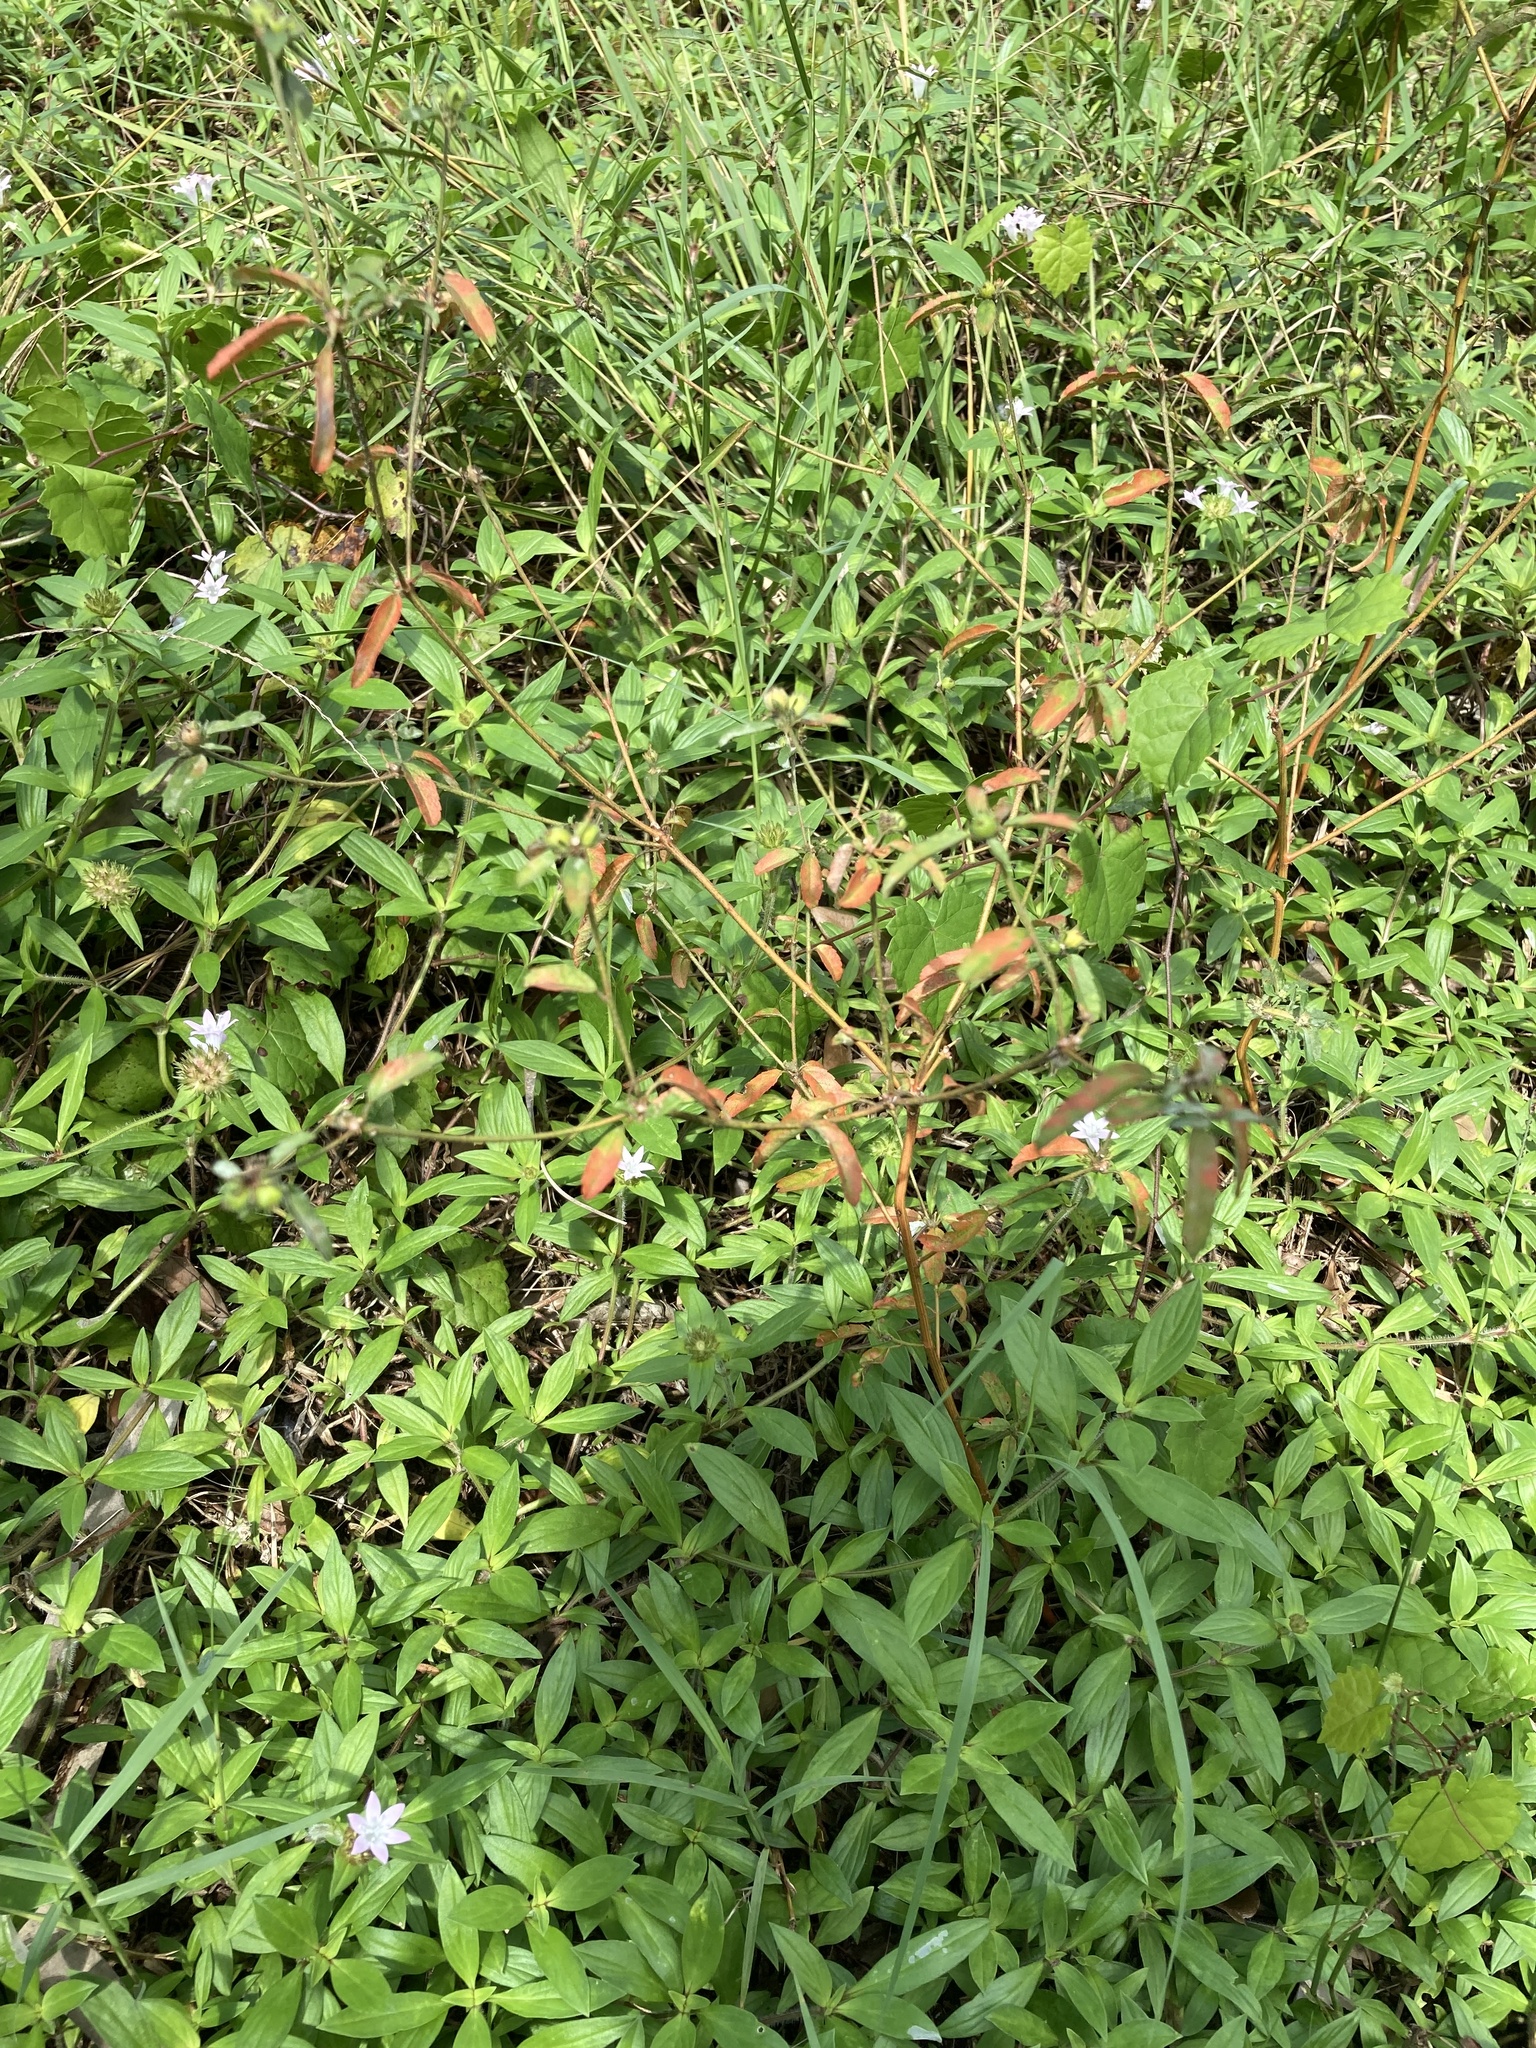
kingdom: Plantae
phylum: Tracheophyta
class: Magnoliopsida
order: Malpighiales
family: Euphorbiaceae
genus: Croton
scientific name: Croton glandulosus
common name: Tropic croton
